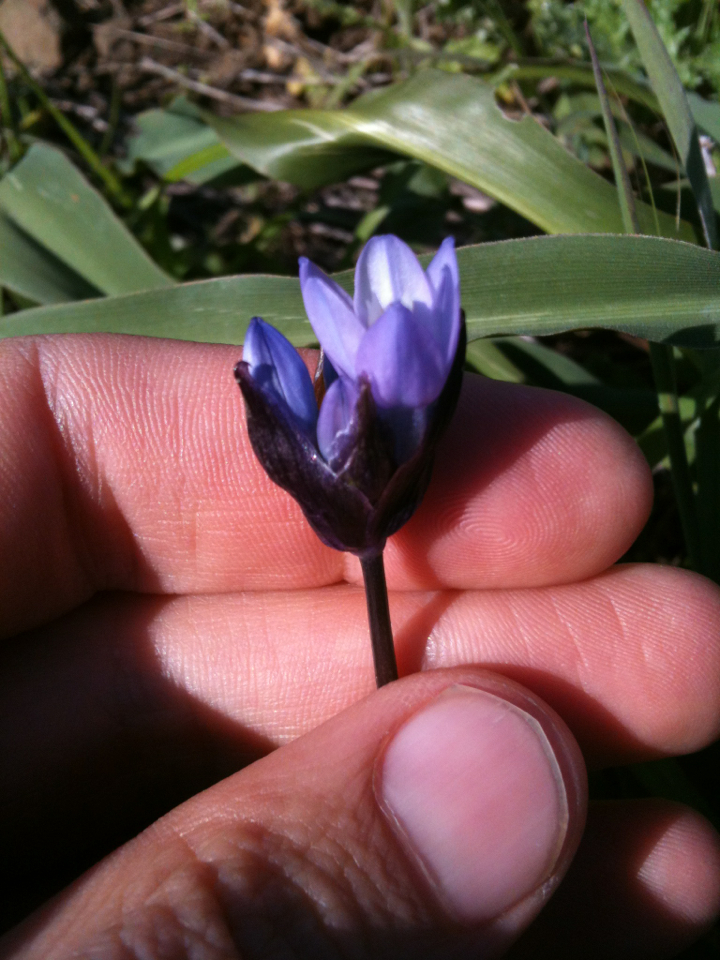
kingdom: Plantae
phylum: Tracheophyta
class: Liliopsida
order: Asparagales
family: Asparagaceae
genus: Dipterostemon
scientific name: Dipterostemon capitatus
